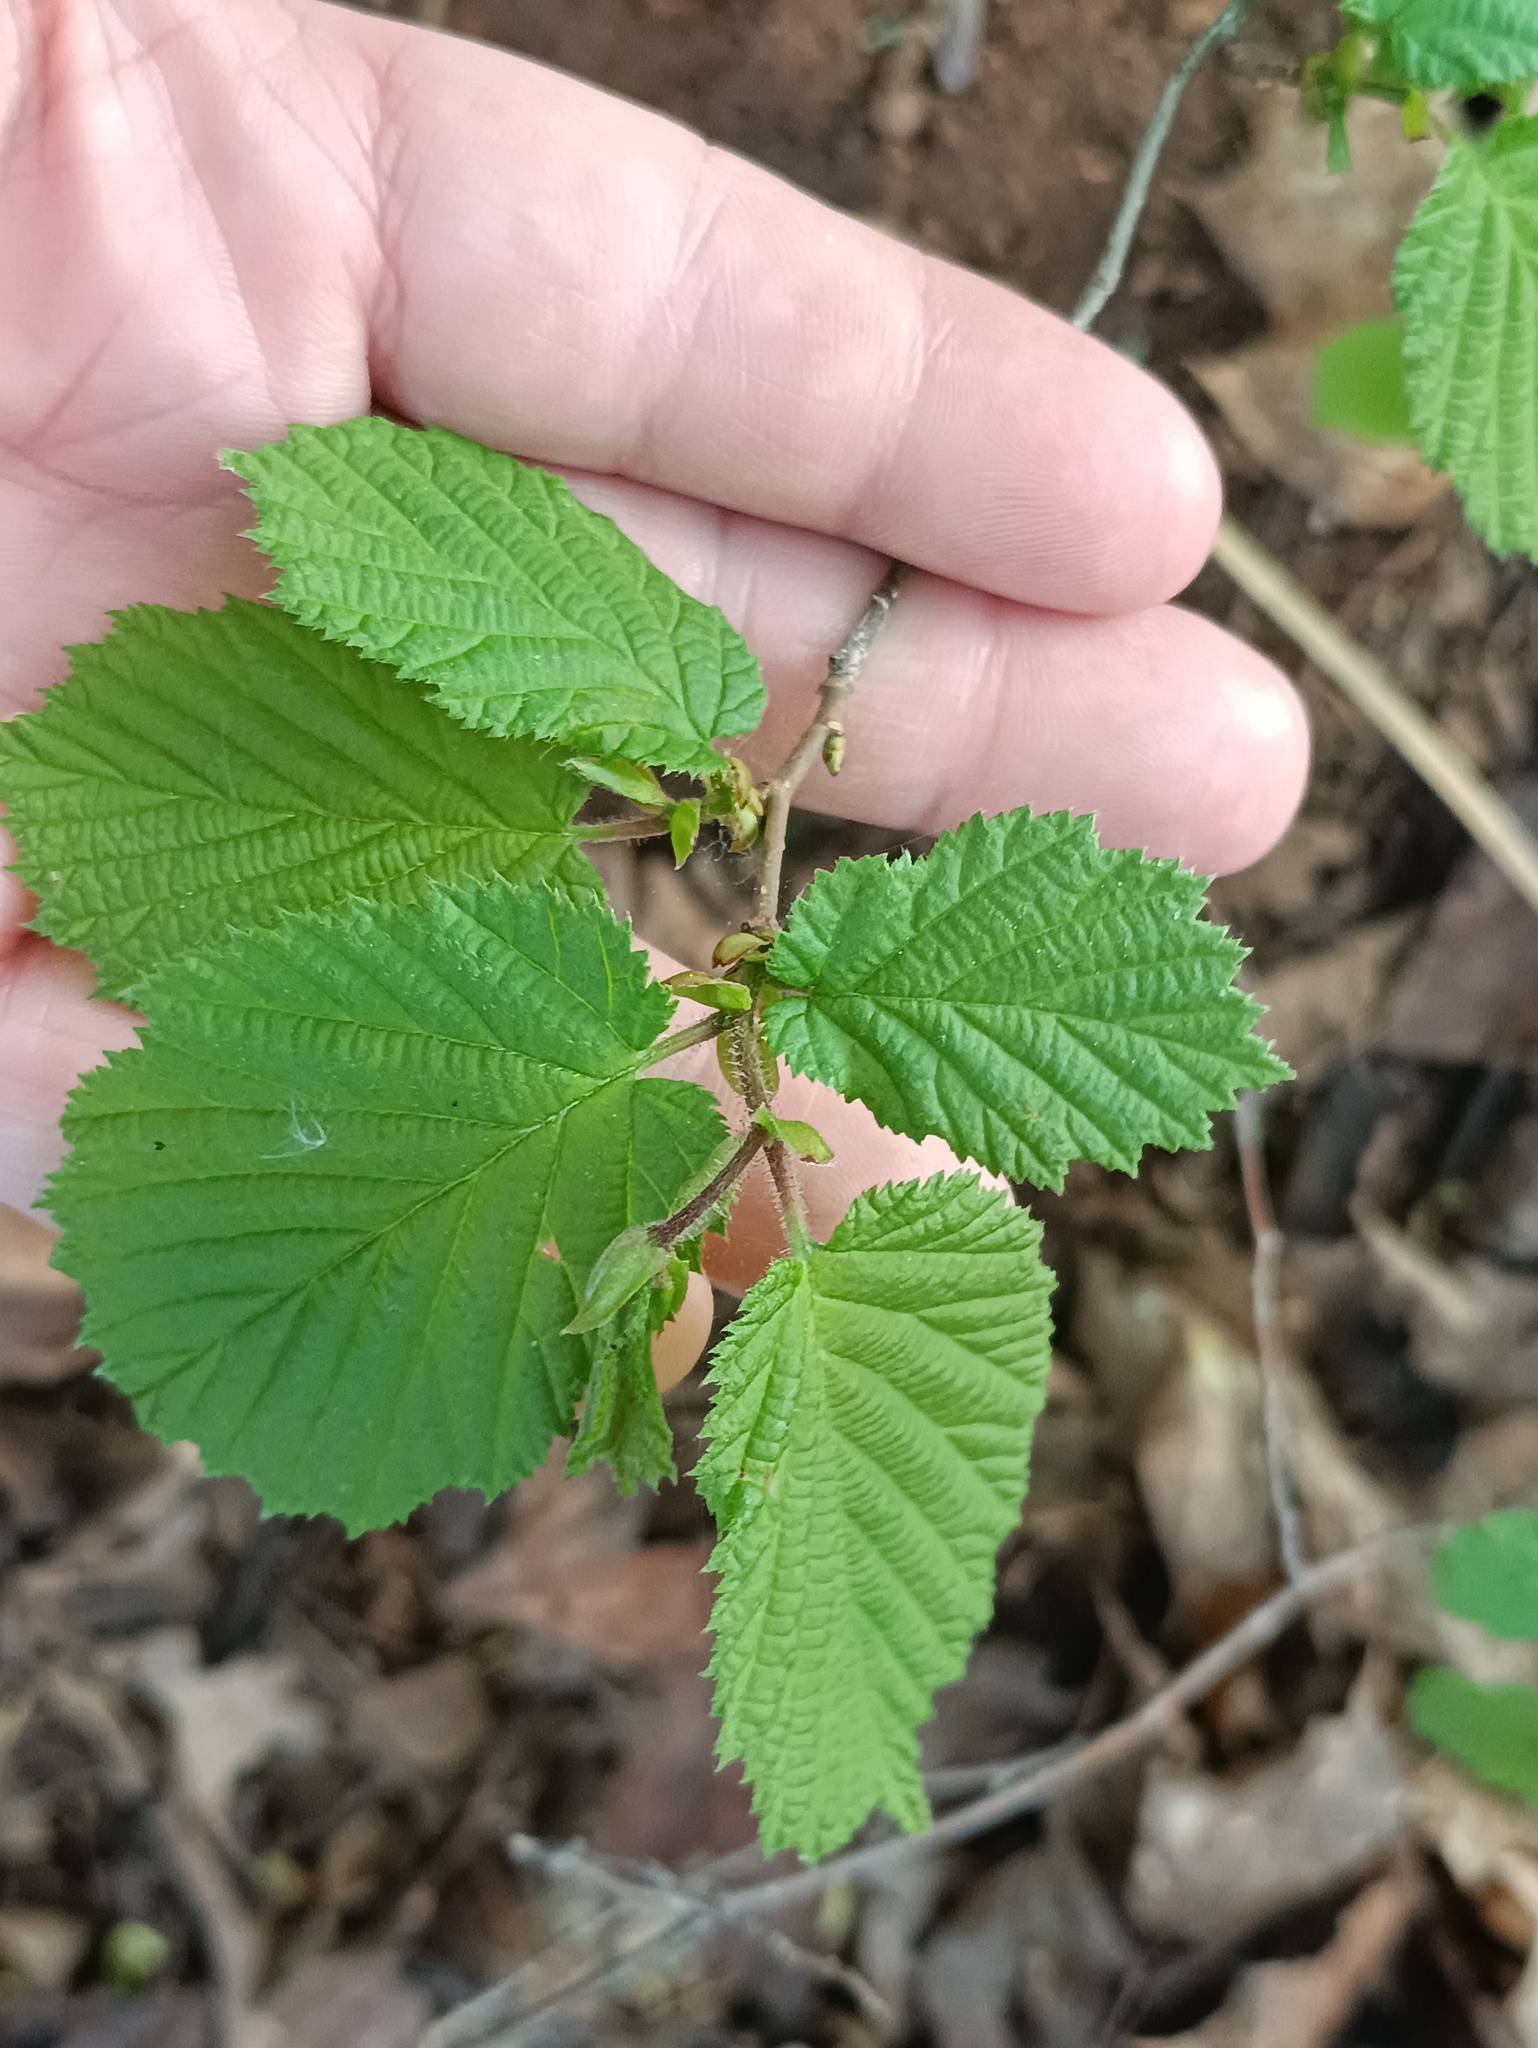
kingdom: Plantae
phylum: Tracheophyta
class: Magnoliopsida
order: Fagales
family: Betulaceae
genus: Corylus
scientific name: Corylus avellana
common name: European hazel
